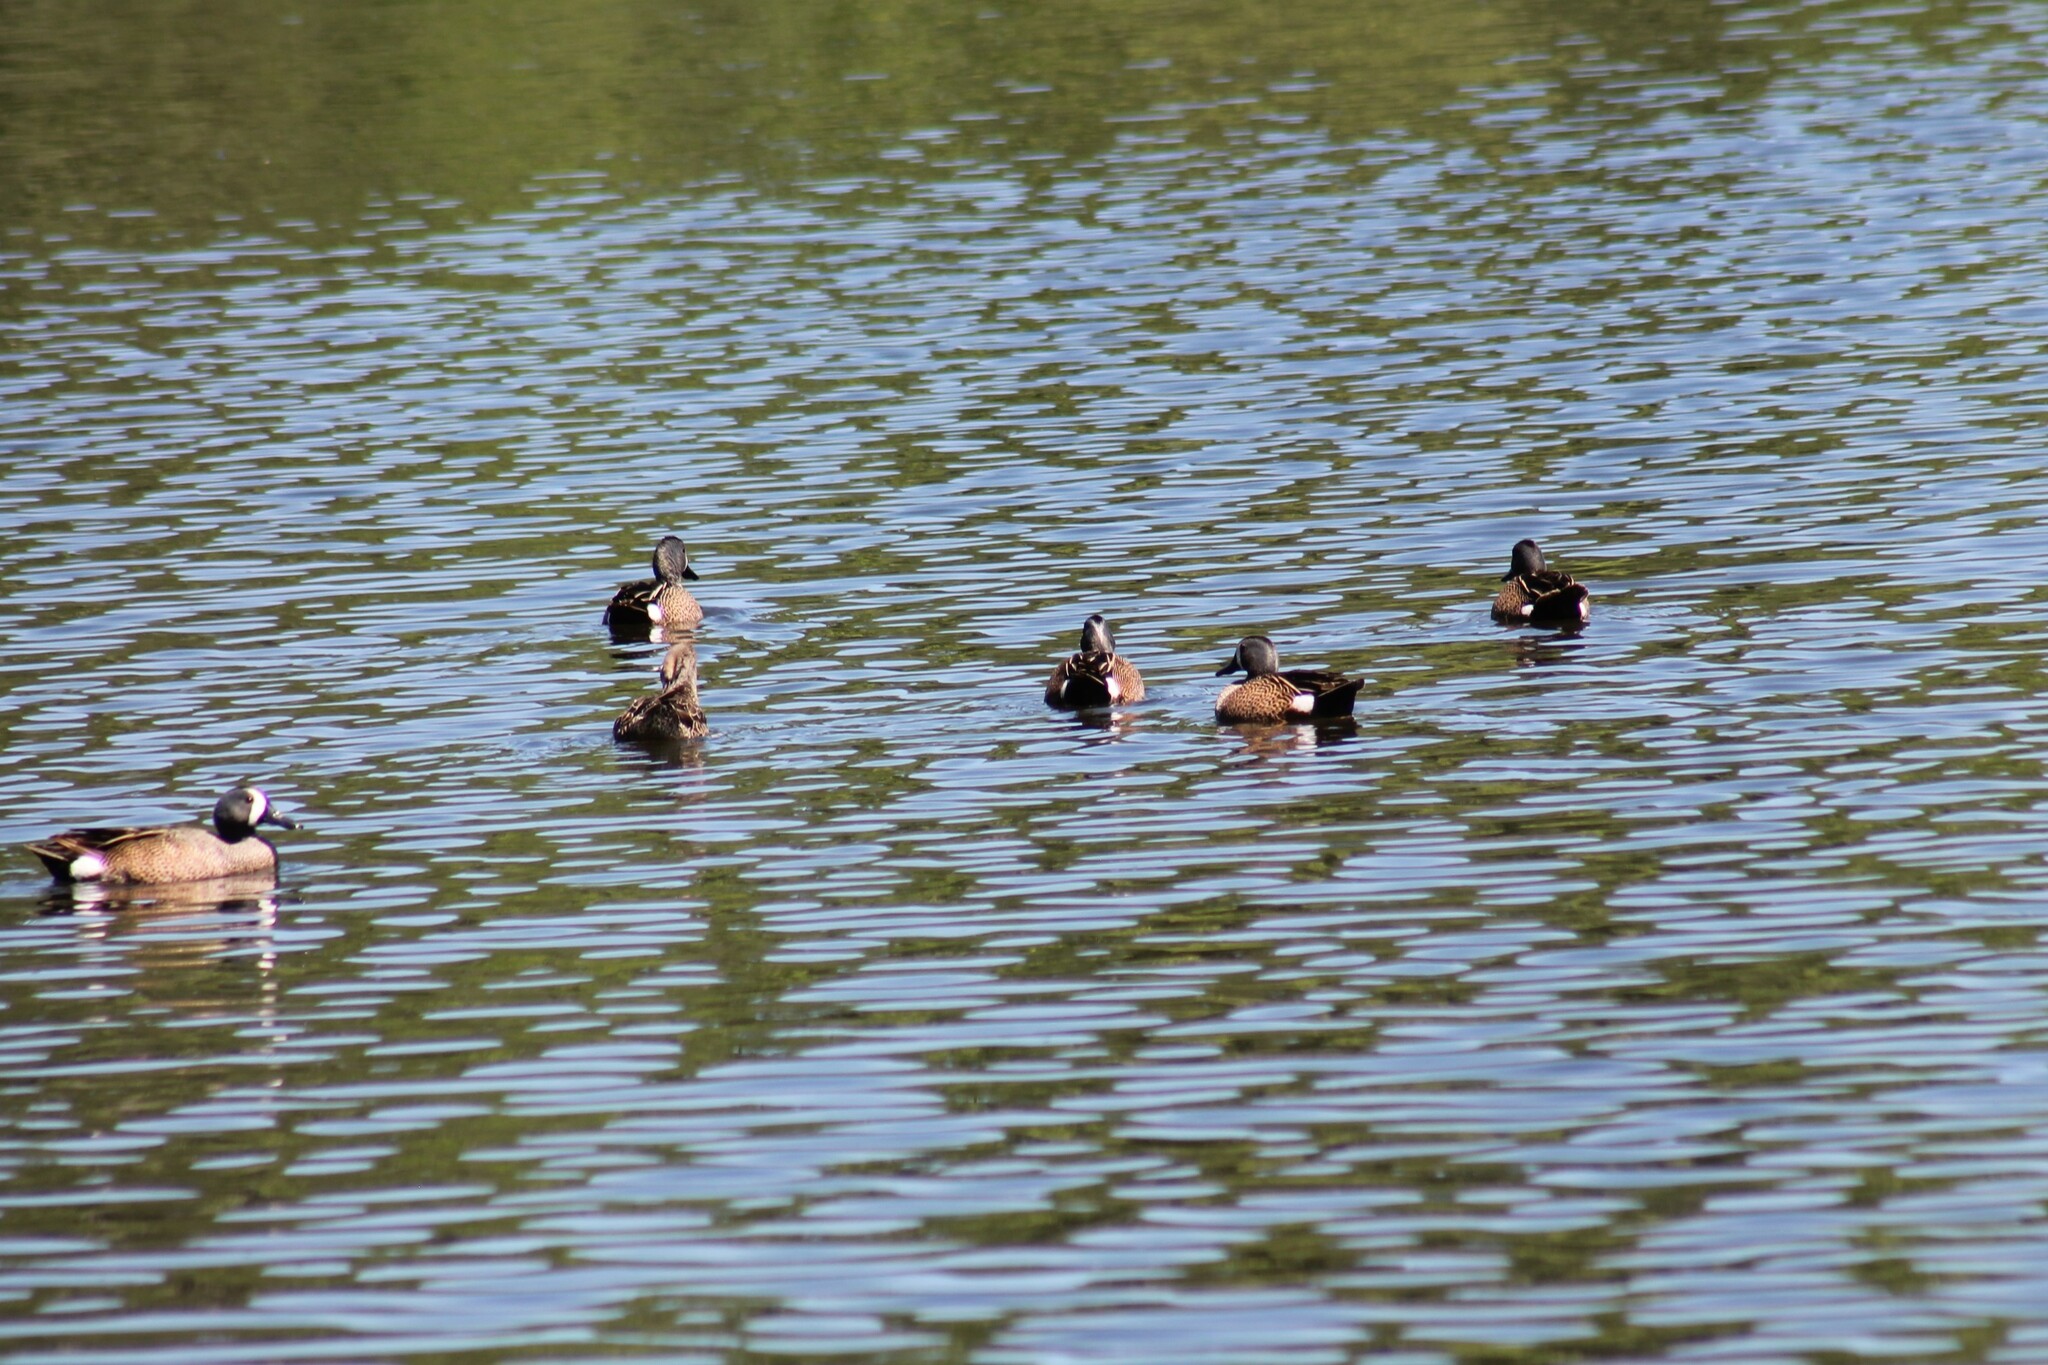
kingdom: Animalia
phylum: Chordata
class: Aves
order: Anseriformes
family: Anatidae
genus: Spatula
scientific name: Spatula discors
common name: Blue-winged teal
